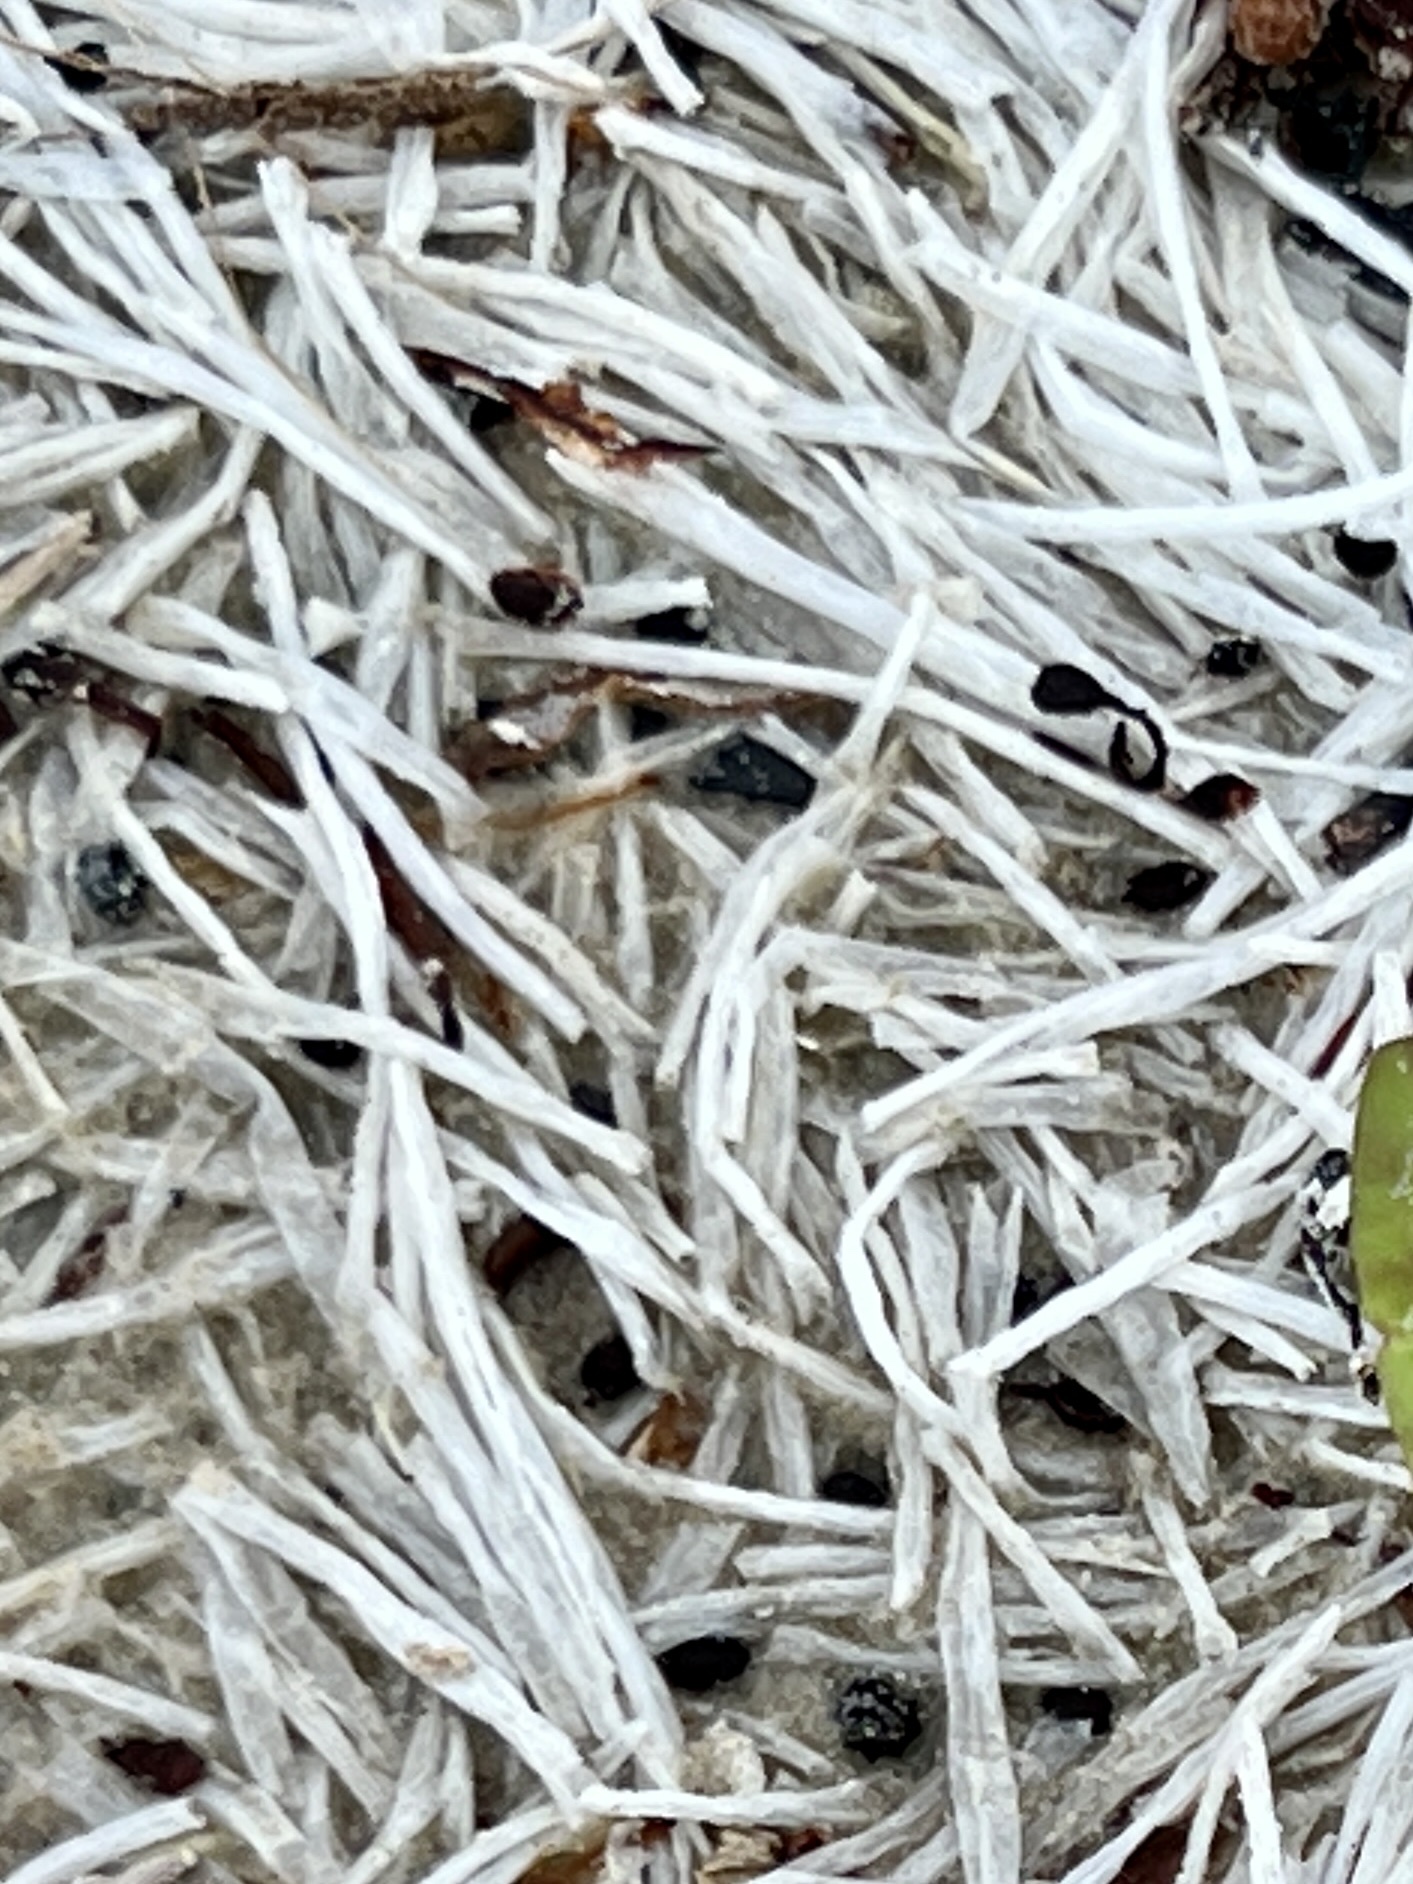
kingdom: Plantae
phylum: Tracheophyta
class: Liliopsida
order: Alismatales
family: Cymodoceaceae
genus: Syringodium
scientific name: Syringodium filiforme
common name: Manatee grass
